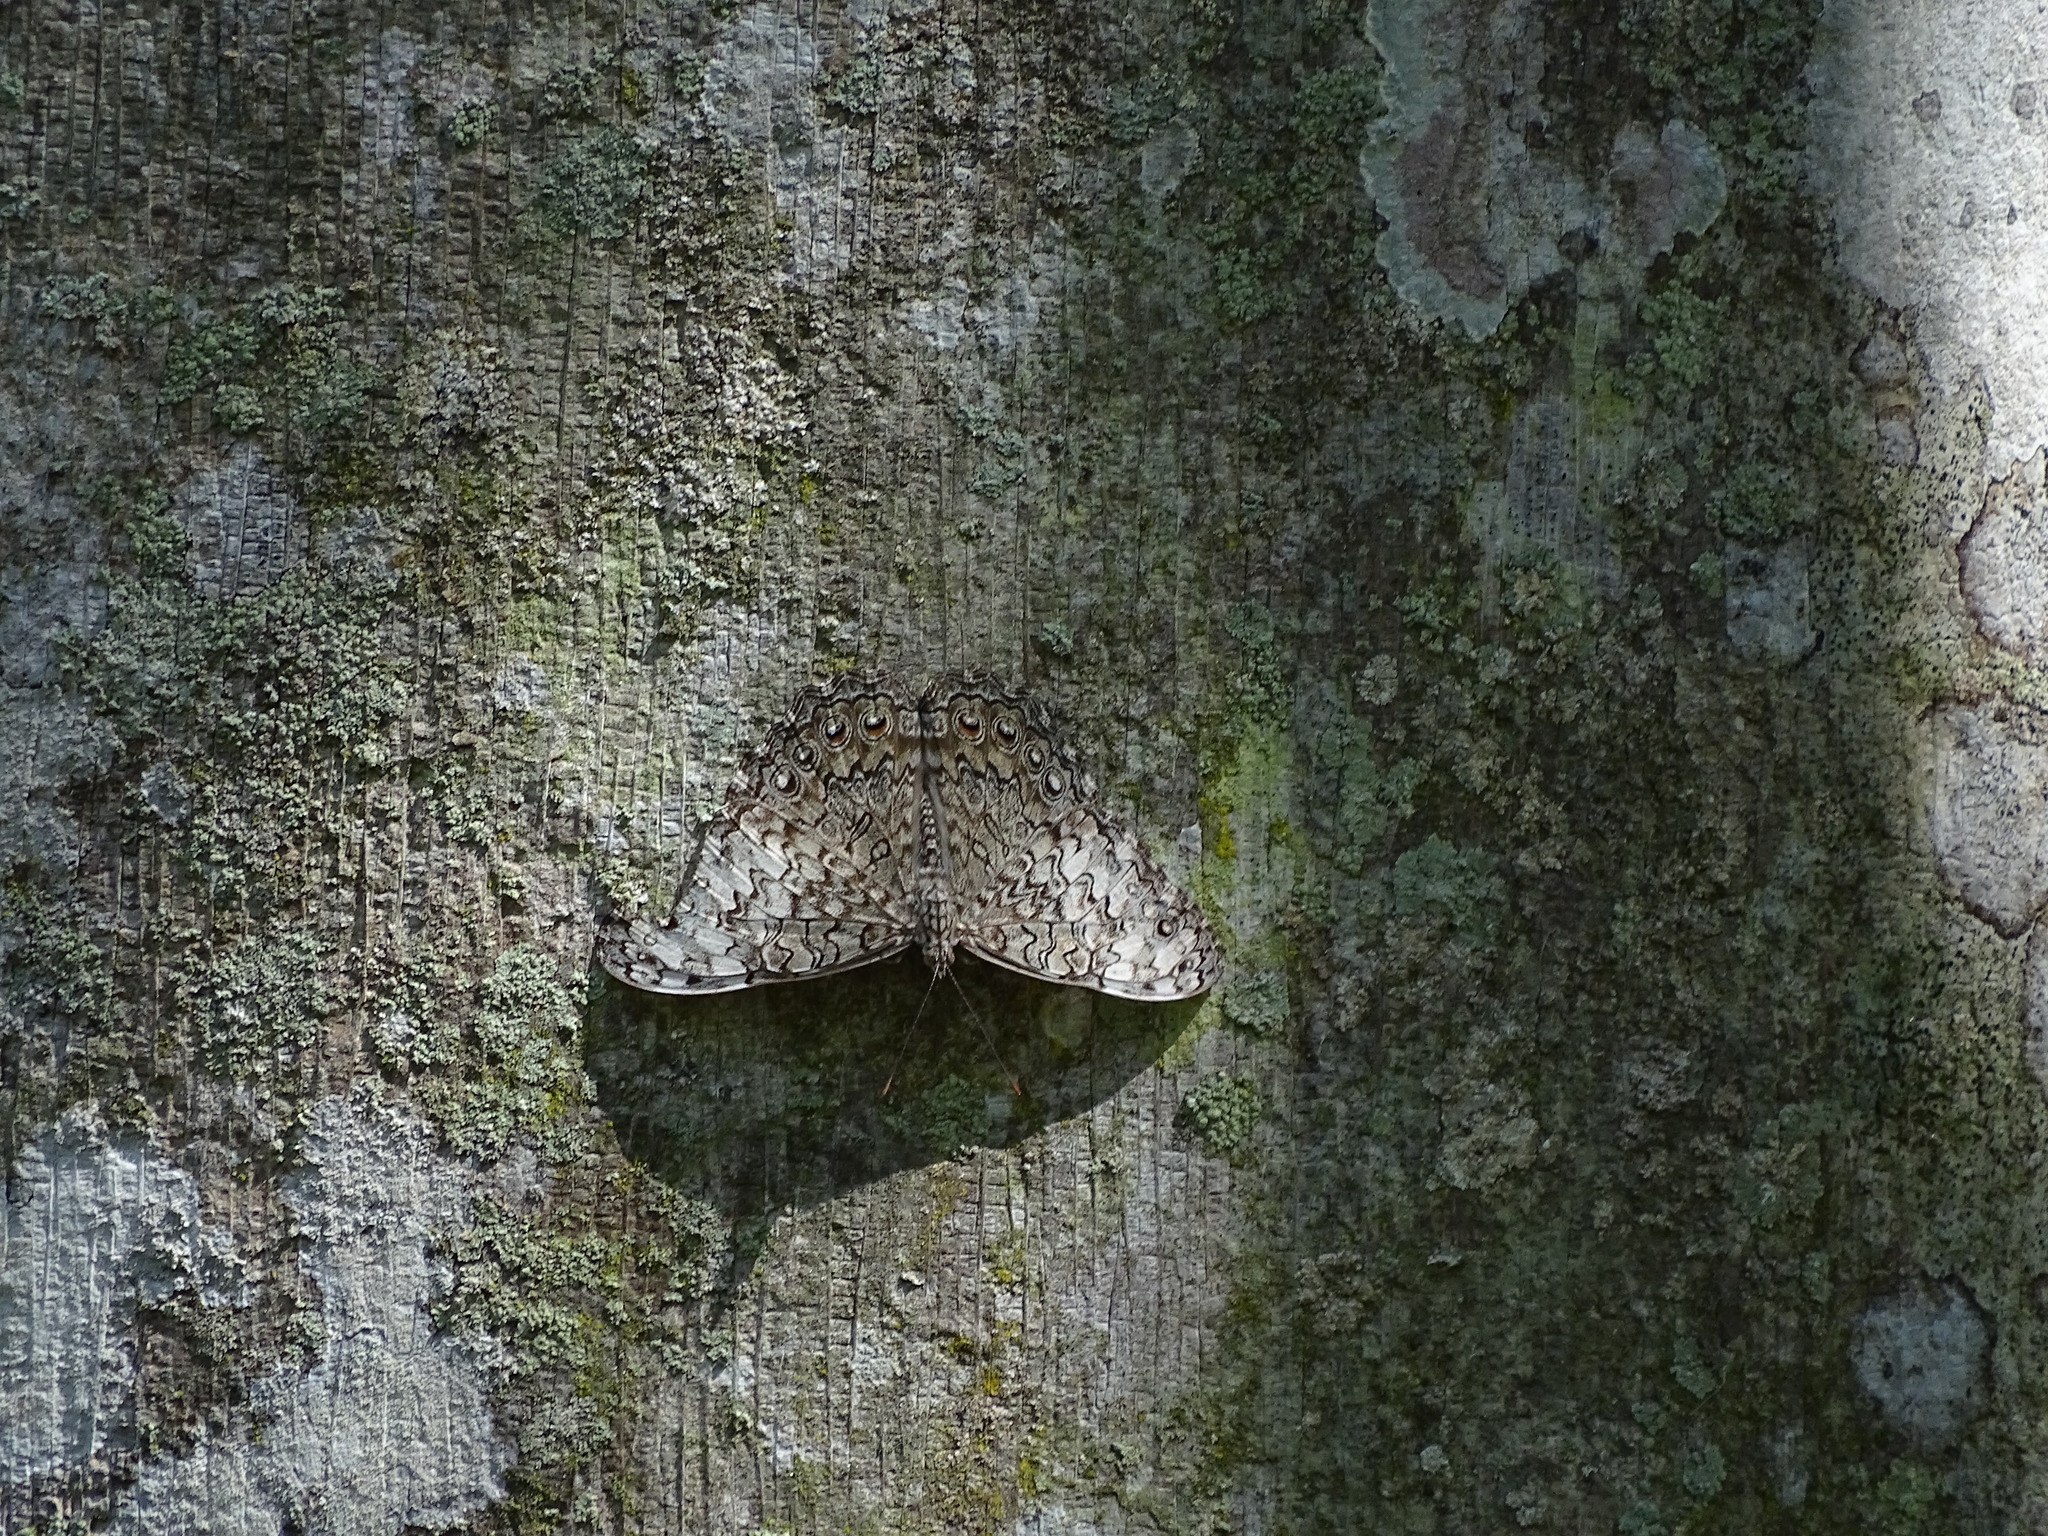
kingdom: Animalia
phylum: Arthropoda
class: Insecta
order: Lepidoptera
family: Nymphalidae
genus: Hamadryas
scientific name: Hamadryas februa
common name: Gray cracker
